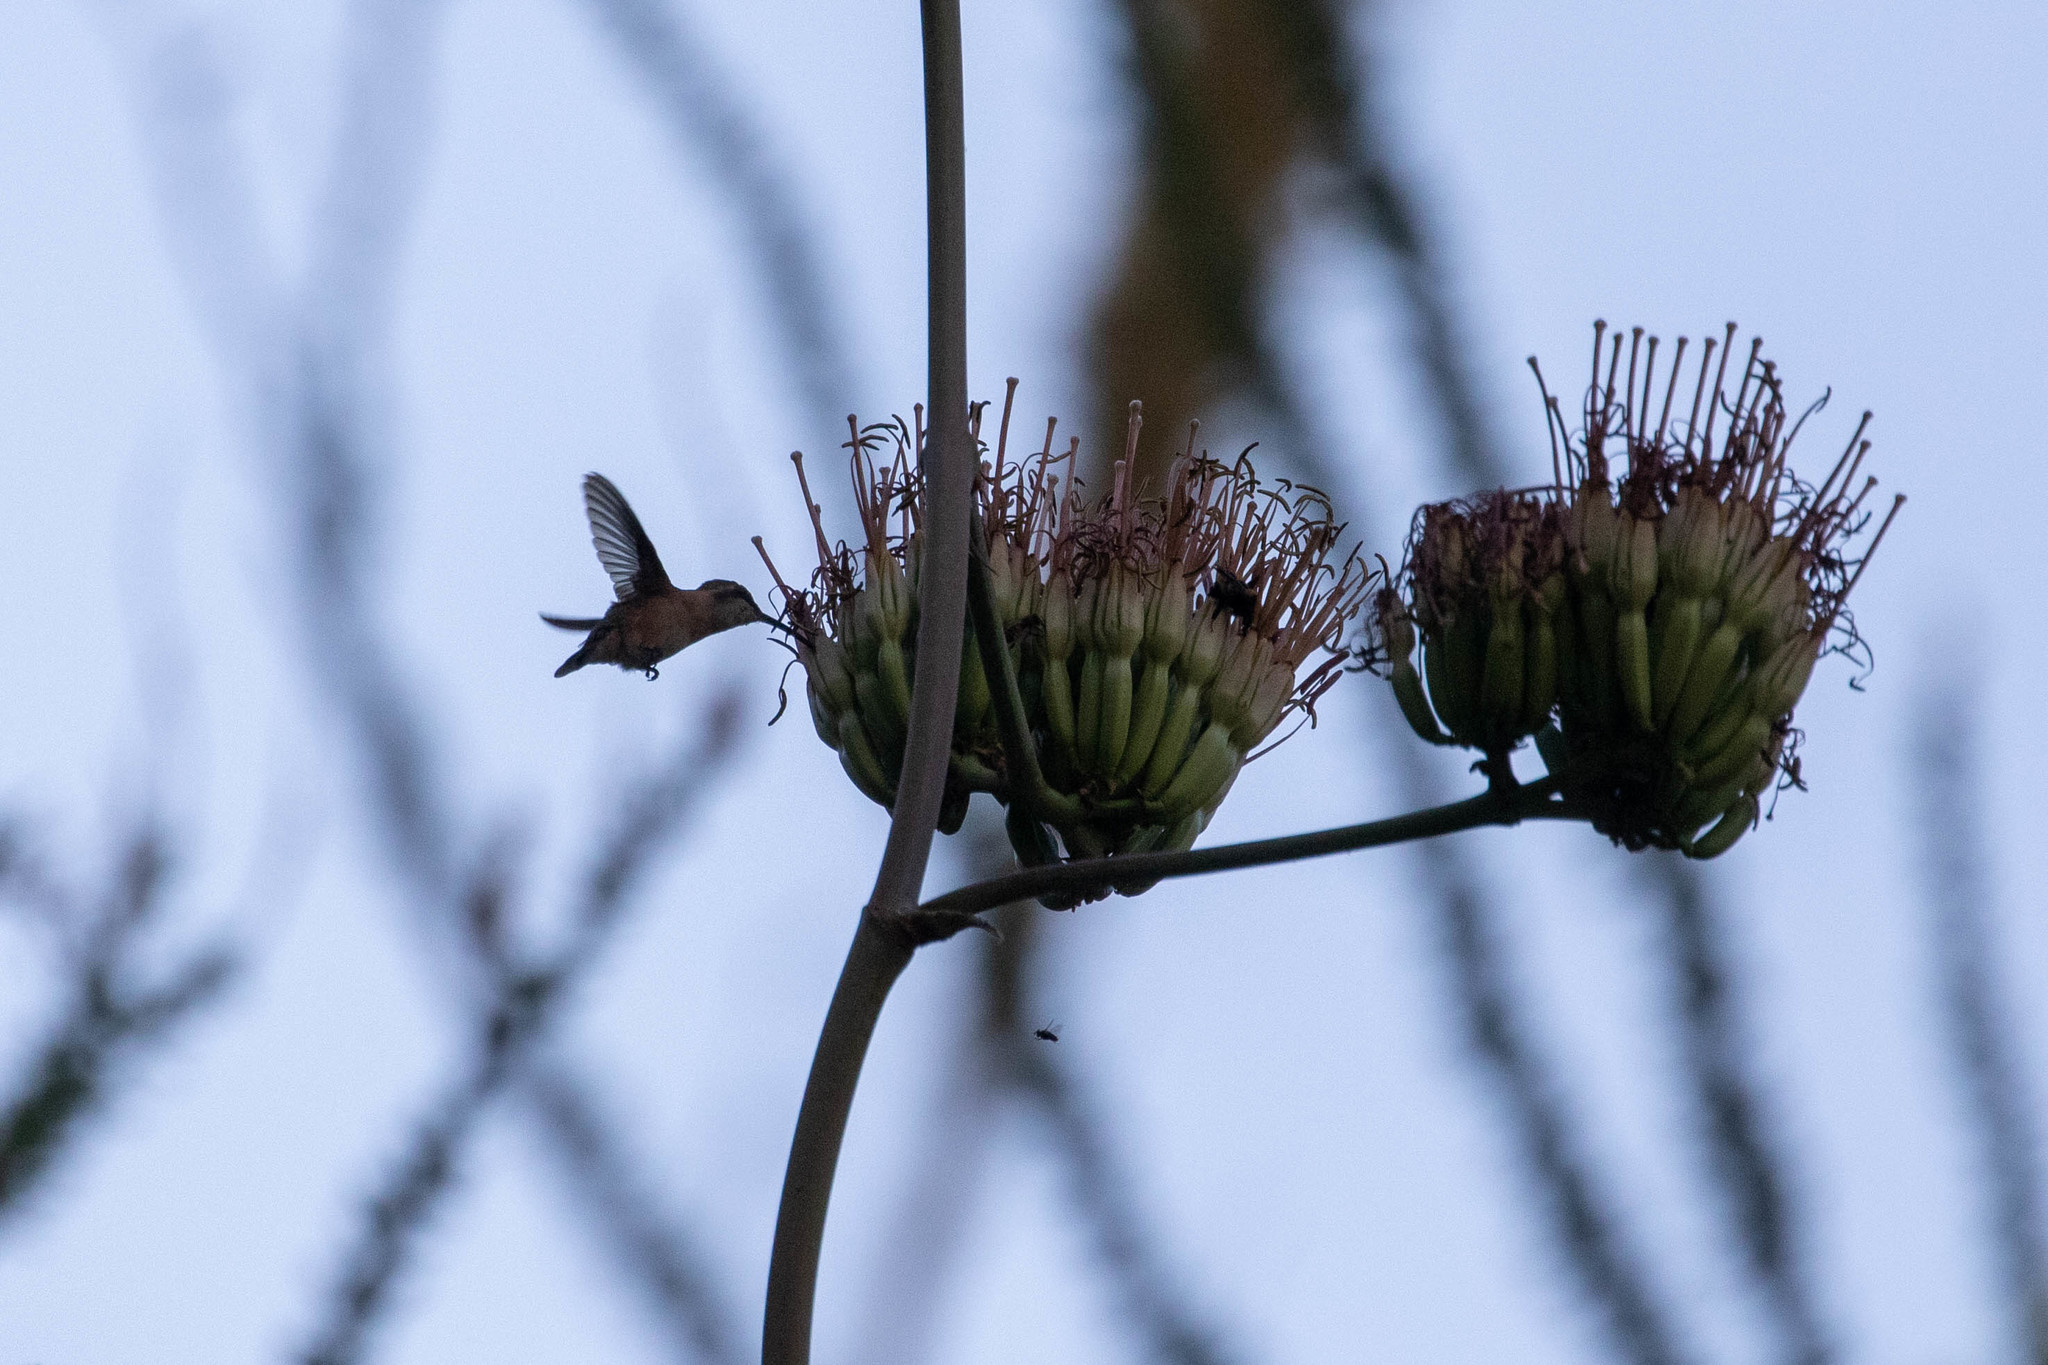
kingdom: Animalia
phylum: Chordata
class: Aves
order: Apodiformes
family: Trochilidae
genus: Calothorax
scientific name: Calothorax lucifer
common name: Lucifer sheartail
